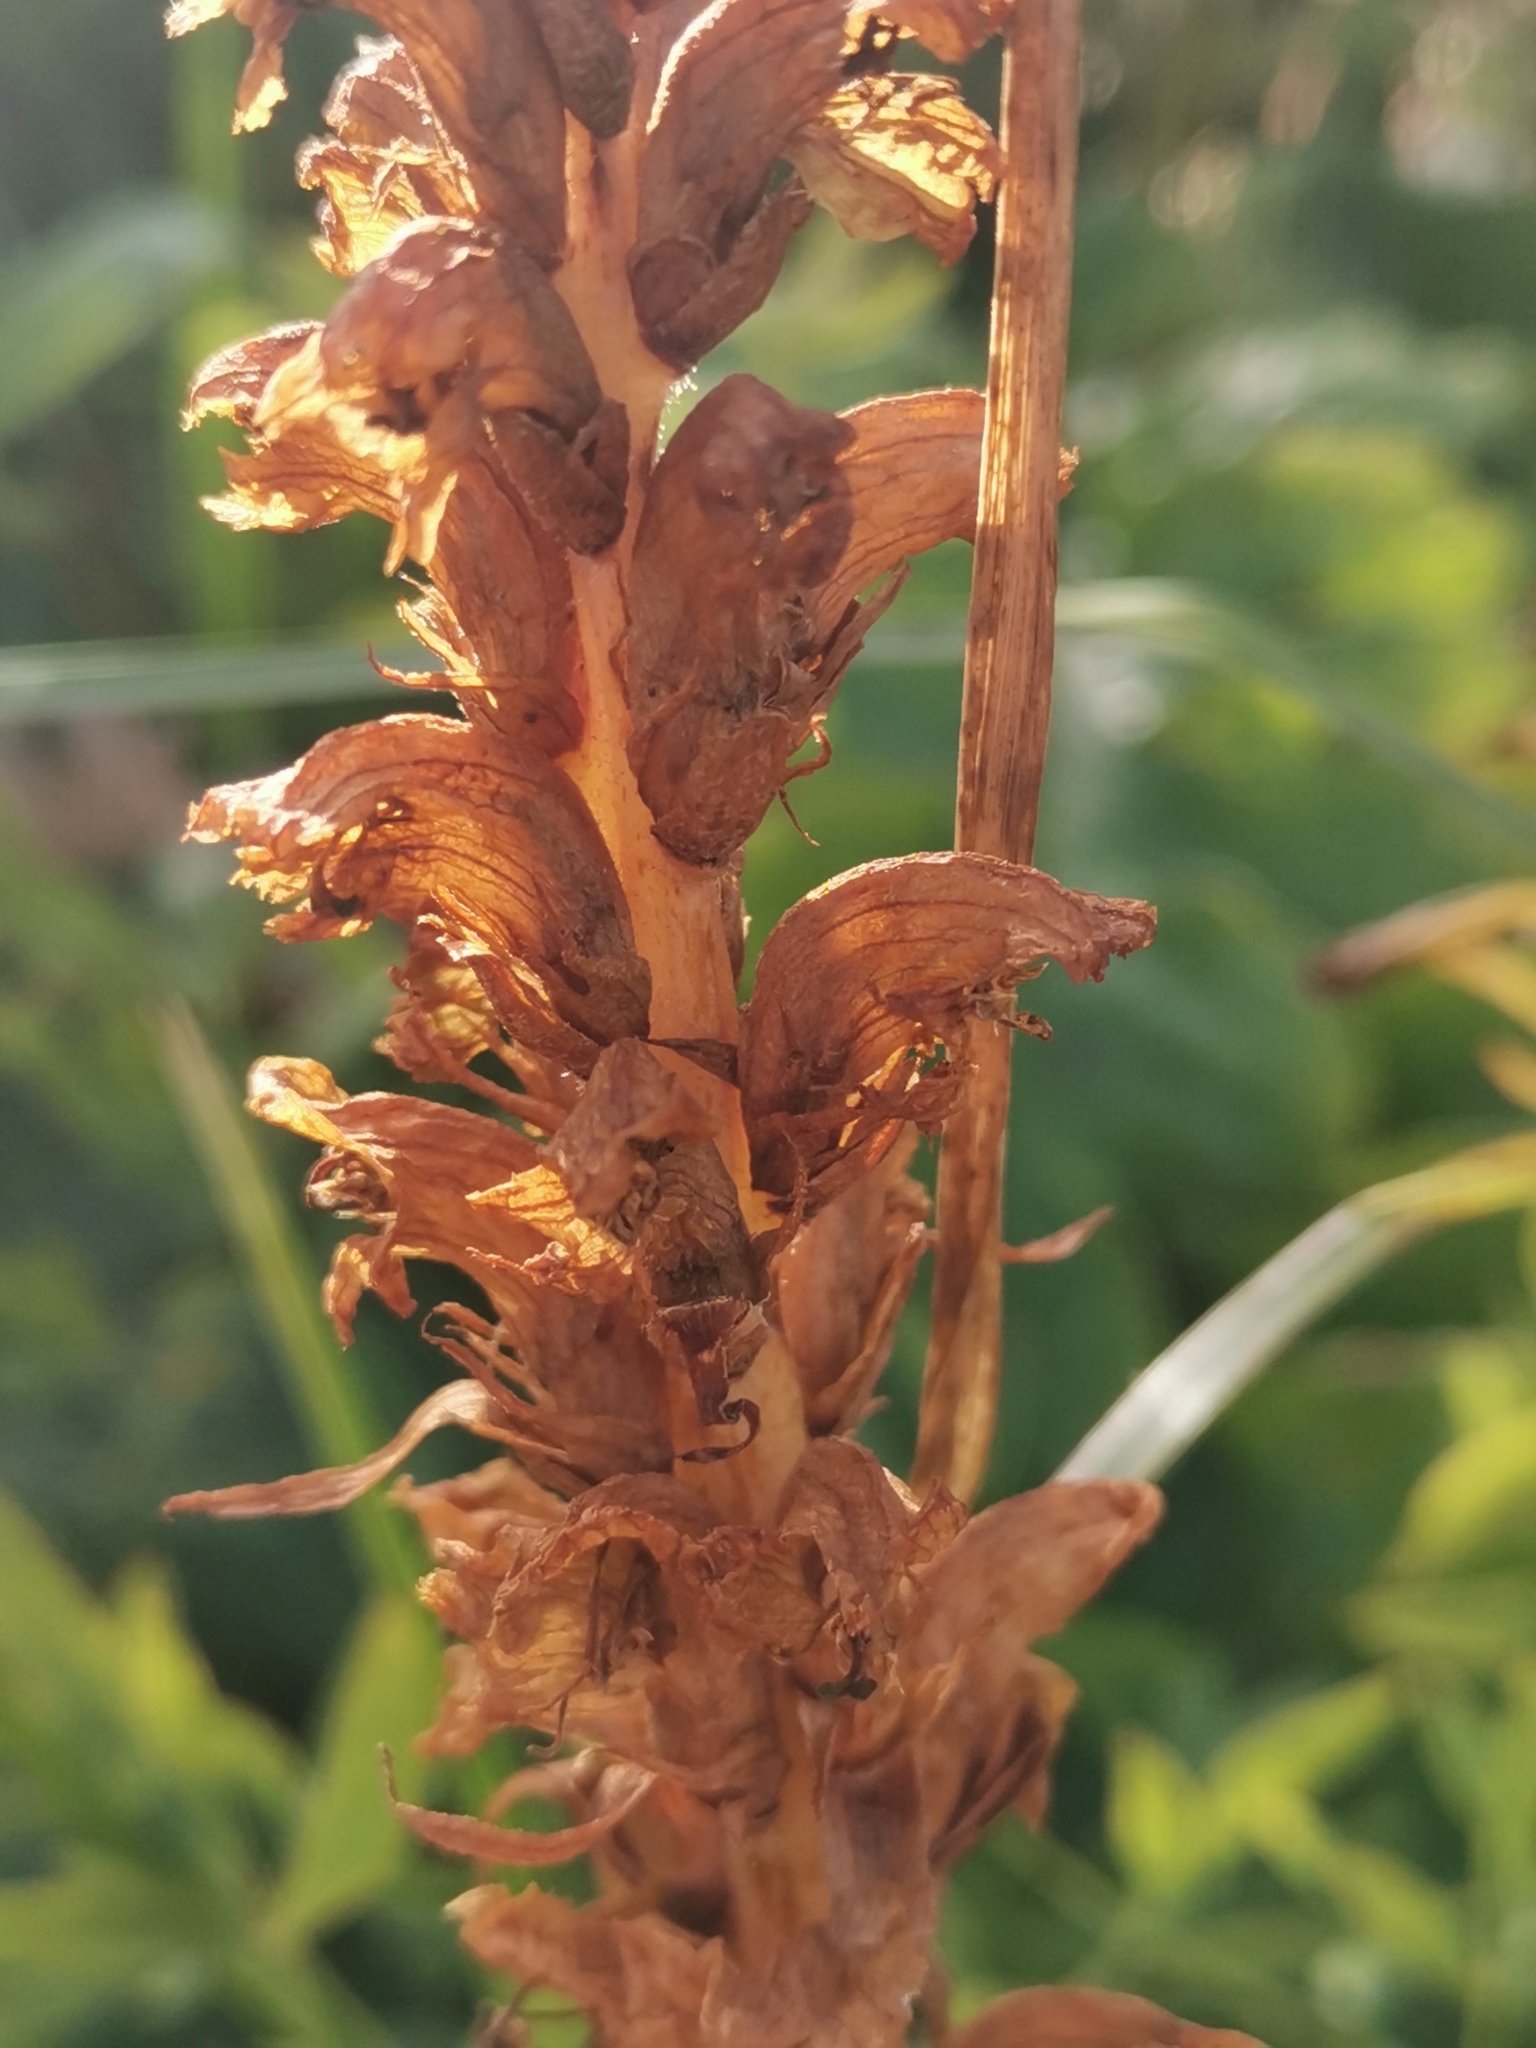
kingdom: Plantae
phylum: Tracheophyta
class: Magnoliopsida
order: Lamiales
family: Orobanchaceae
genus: Orobanche
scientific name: Orobanche laserpitii-sileris
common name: Laserpitium broomrape
